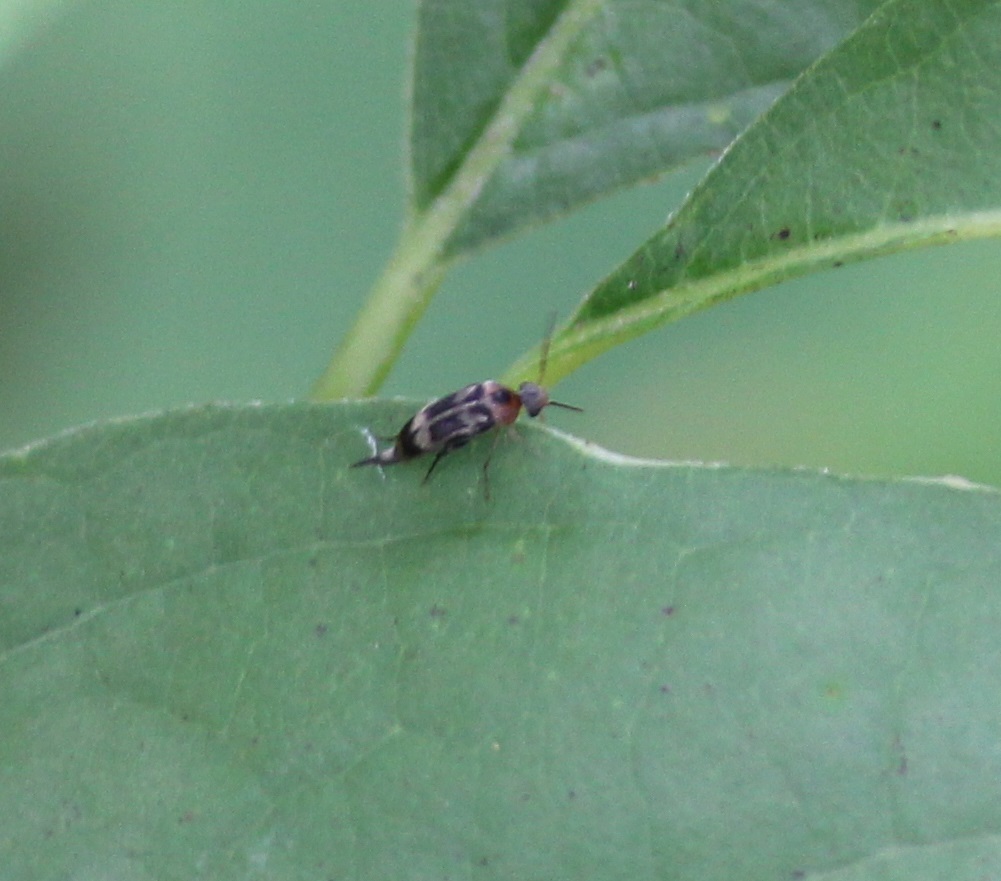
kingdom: Animalia
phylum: Arthropoda
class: Insecta
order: Coleoptera
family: Mordellidae
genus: Falsomordellistena
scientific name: Falsomordellistena hebraica
